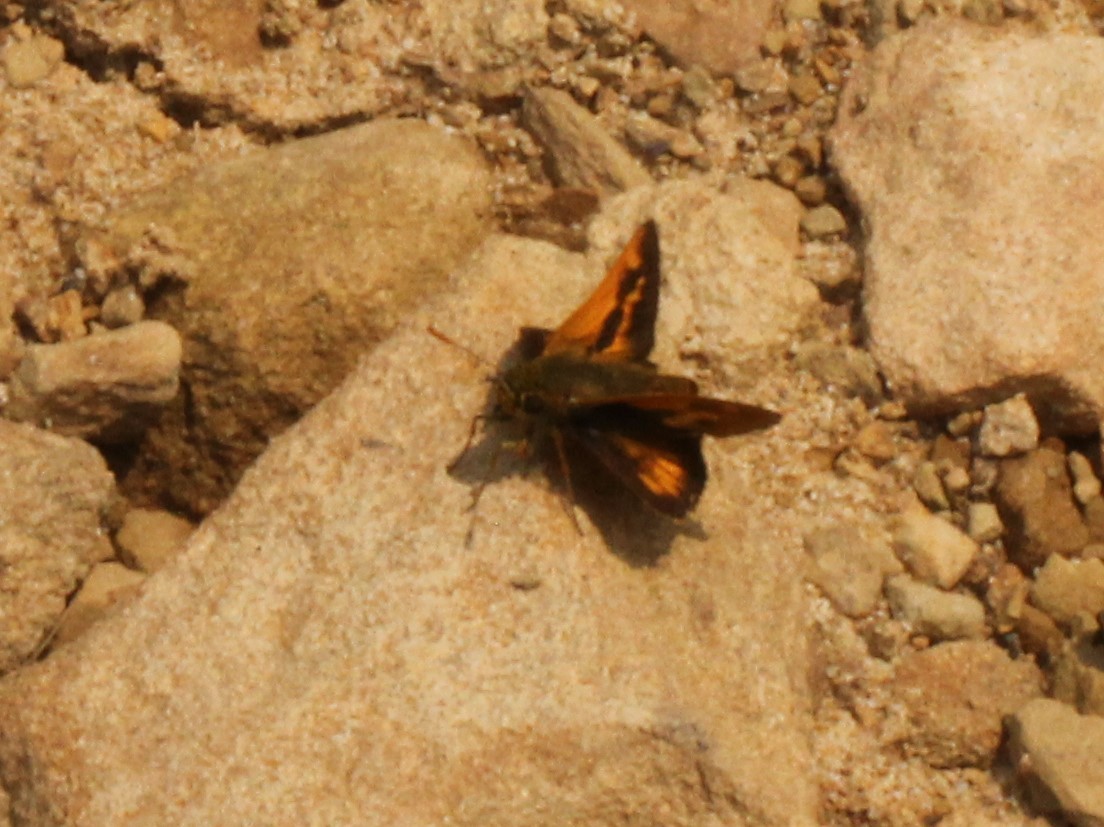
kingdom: Animalia
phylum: Arthropoda
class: Insecta
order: Lepidoptera
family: Hesperiidae
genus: Polites
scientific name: Polites mystic
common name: Long dash
